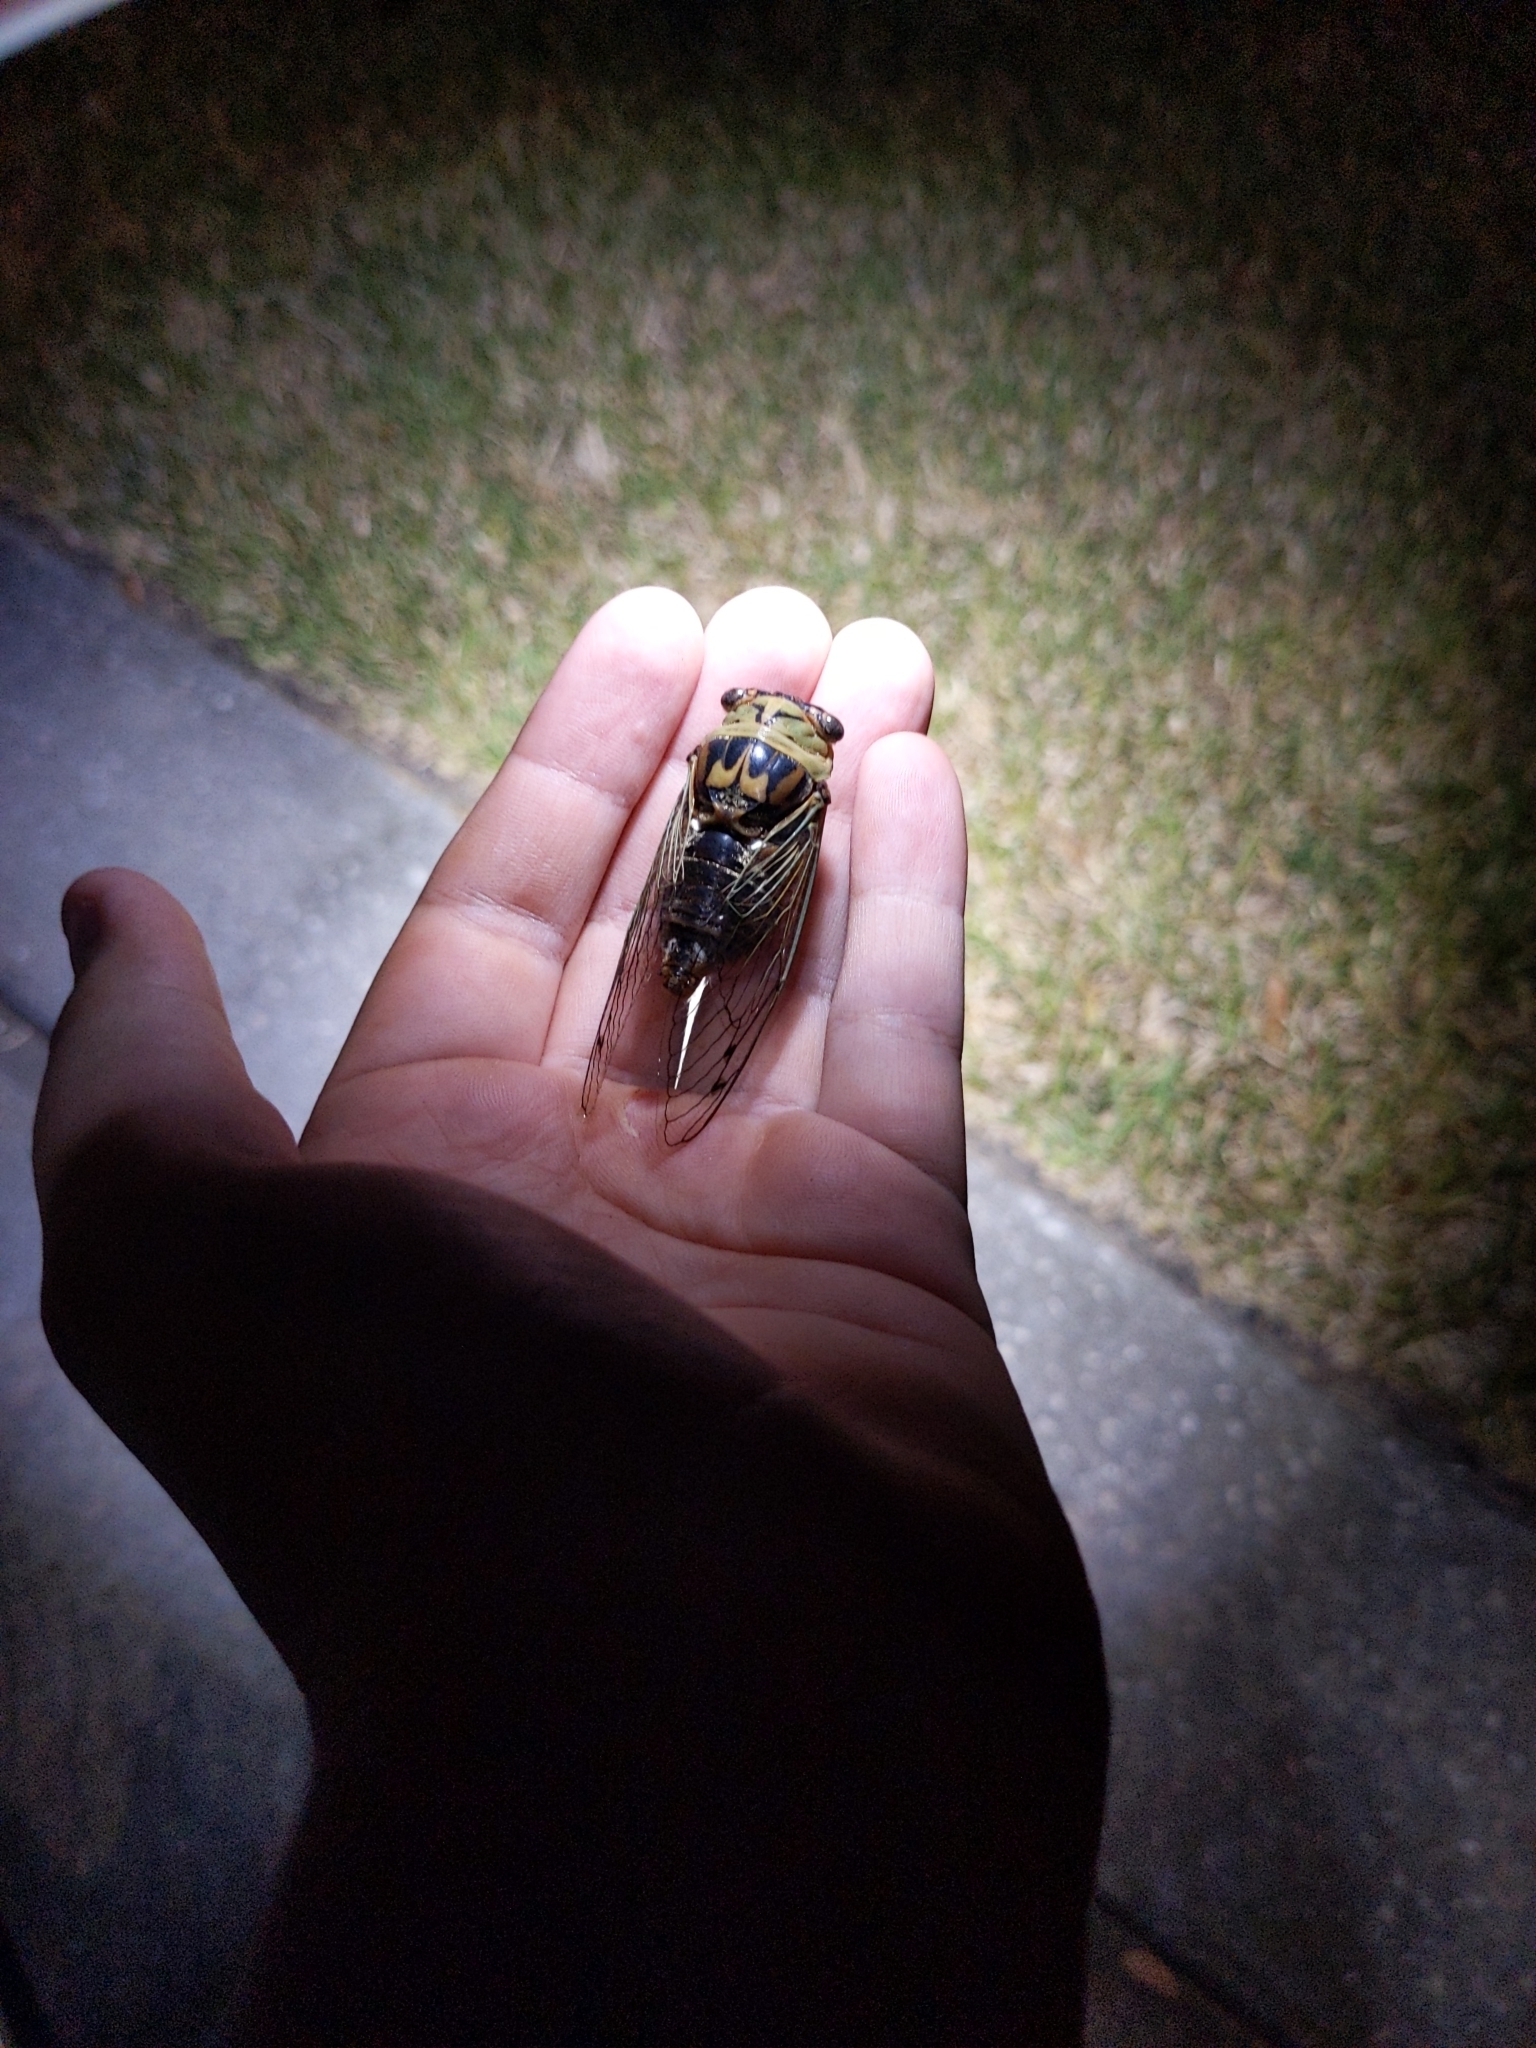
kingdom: Animalia
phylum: Arthropoda
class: Insecta
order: Hemiptera
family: Cicadidae
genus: Megatibicen
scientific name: Megatibicen resh
